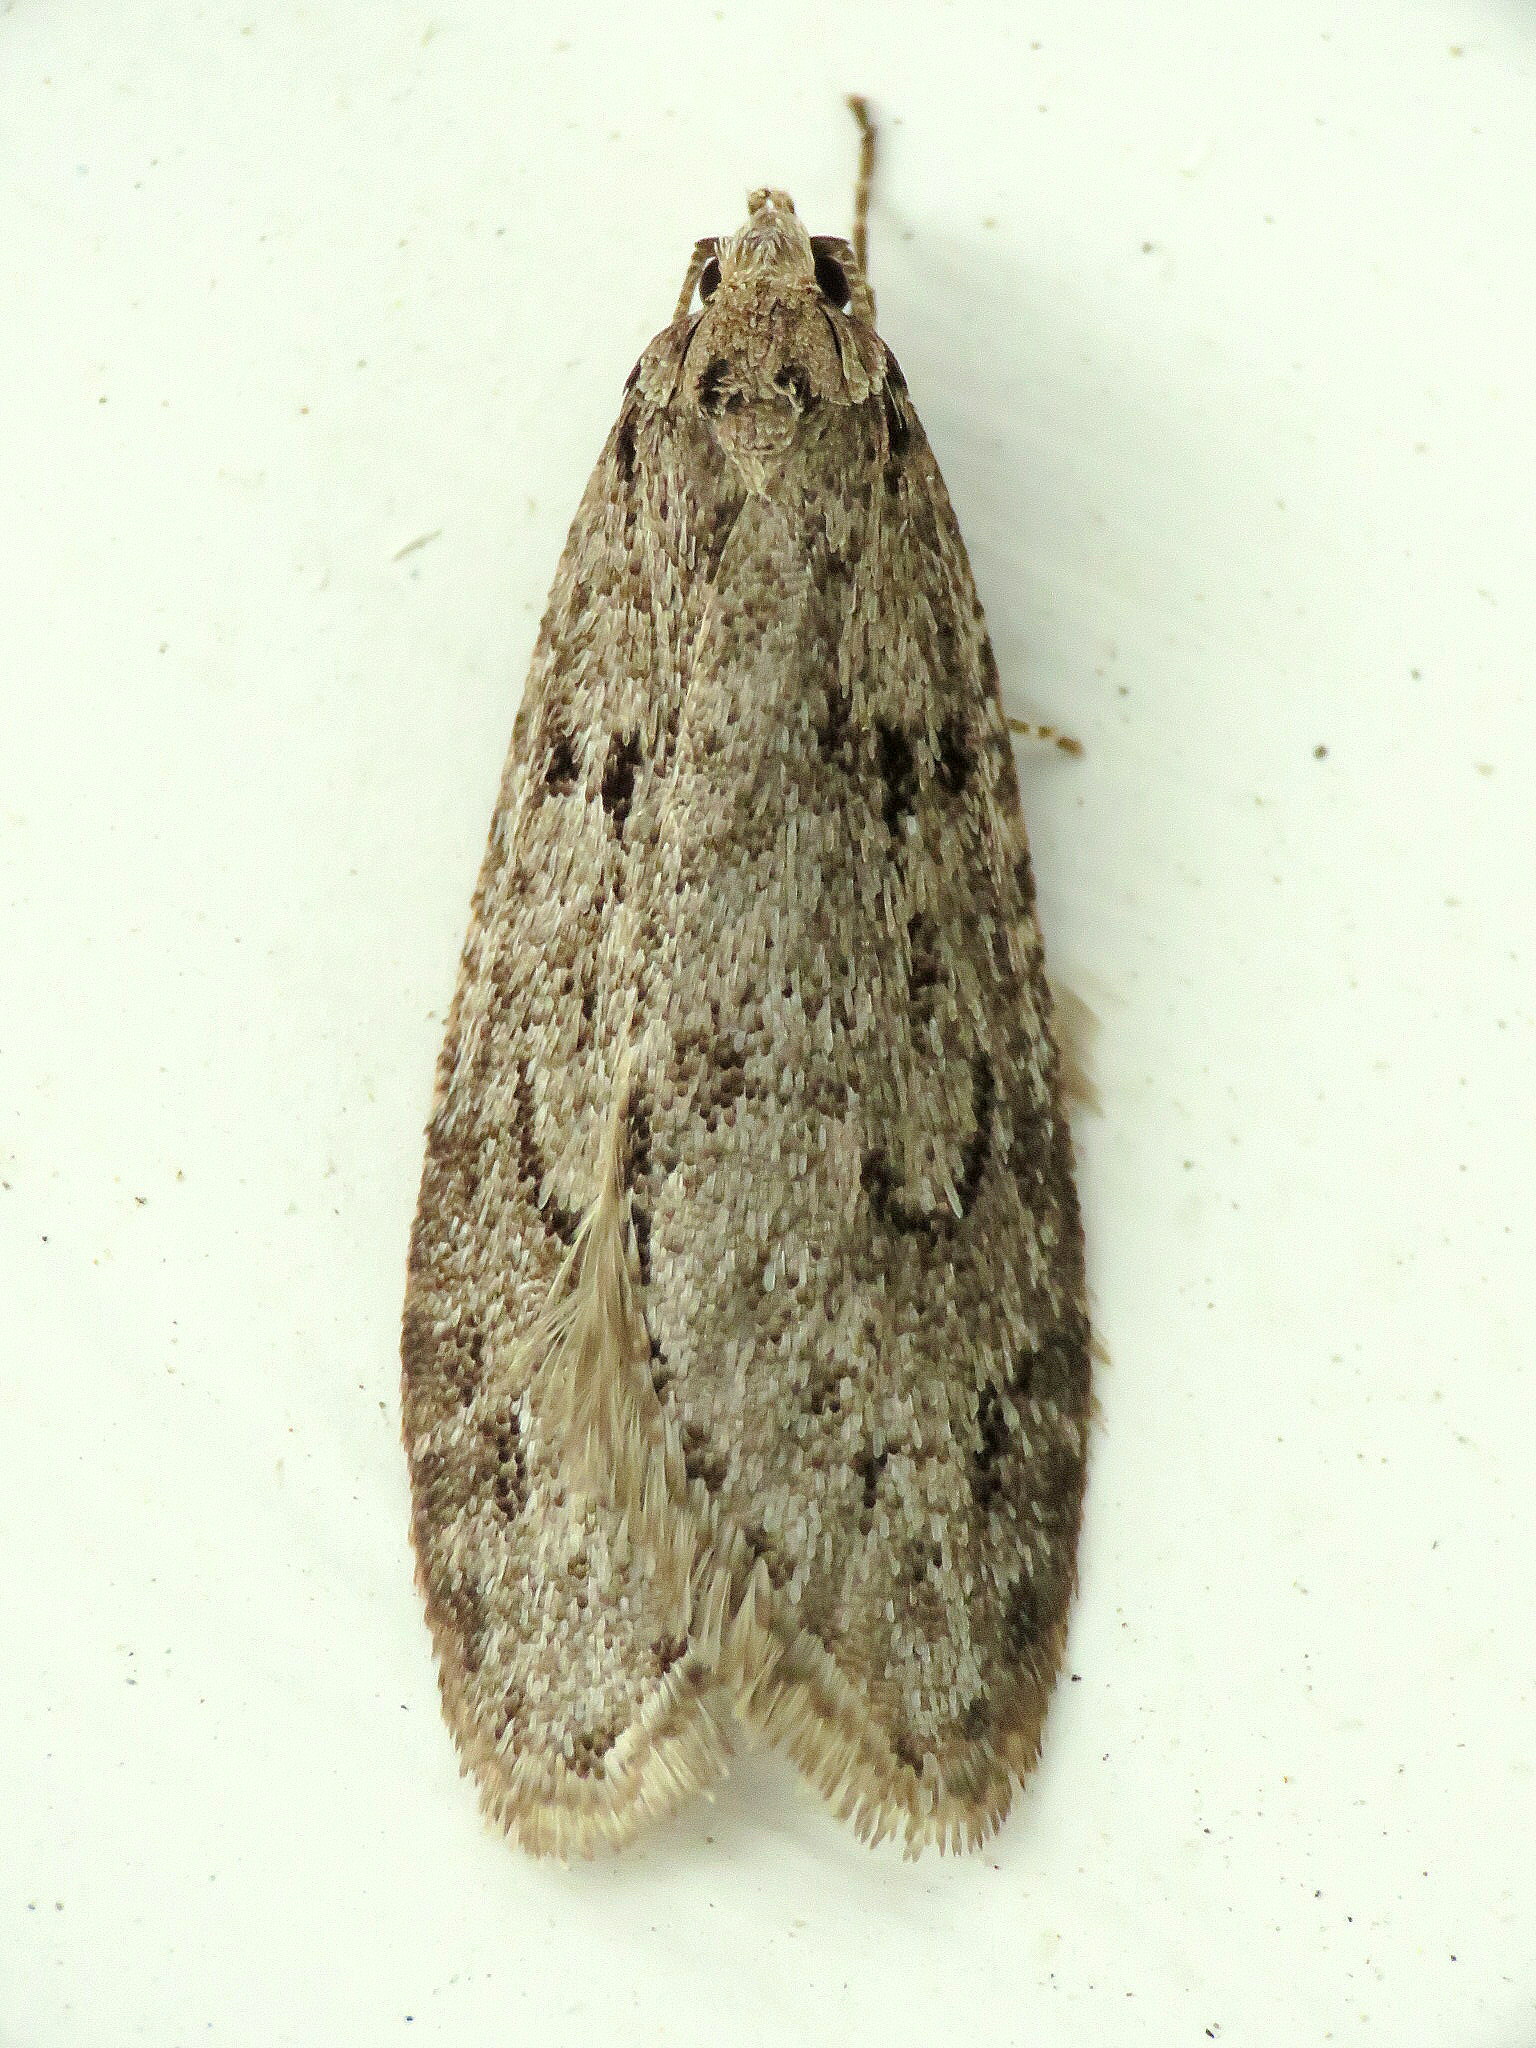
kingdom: Animalia
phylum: Arthropoda
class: Insecta
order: Lepidoptera
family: Depressariidae
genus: Semioscopis
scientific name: Semioscopis megamicrella
